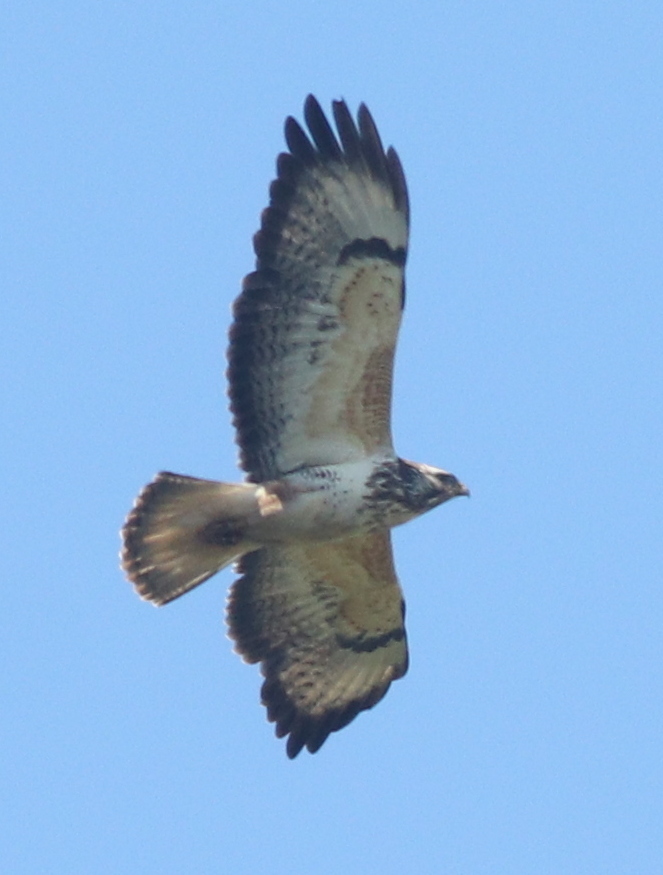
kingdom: Animalia
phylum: Chordata
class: Aves
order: Accipitriformes
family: Accipitridae
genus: Buteo
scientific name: Buteo buteo
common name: Common buzzard
